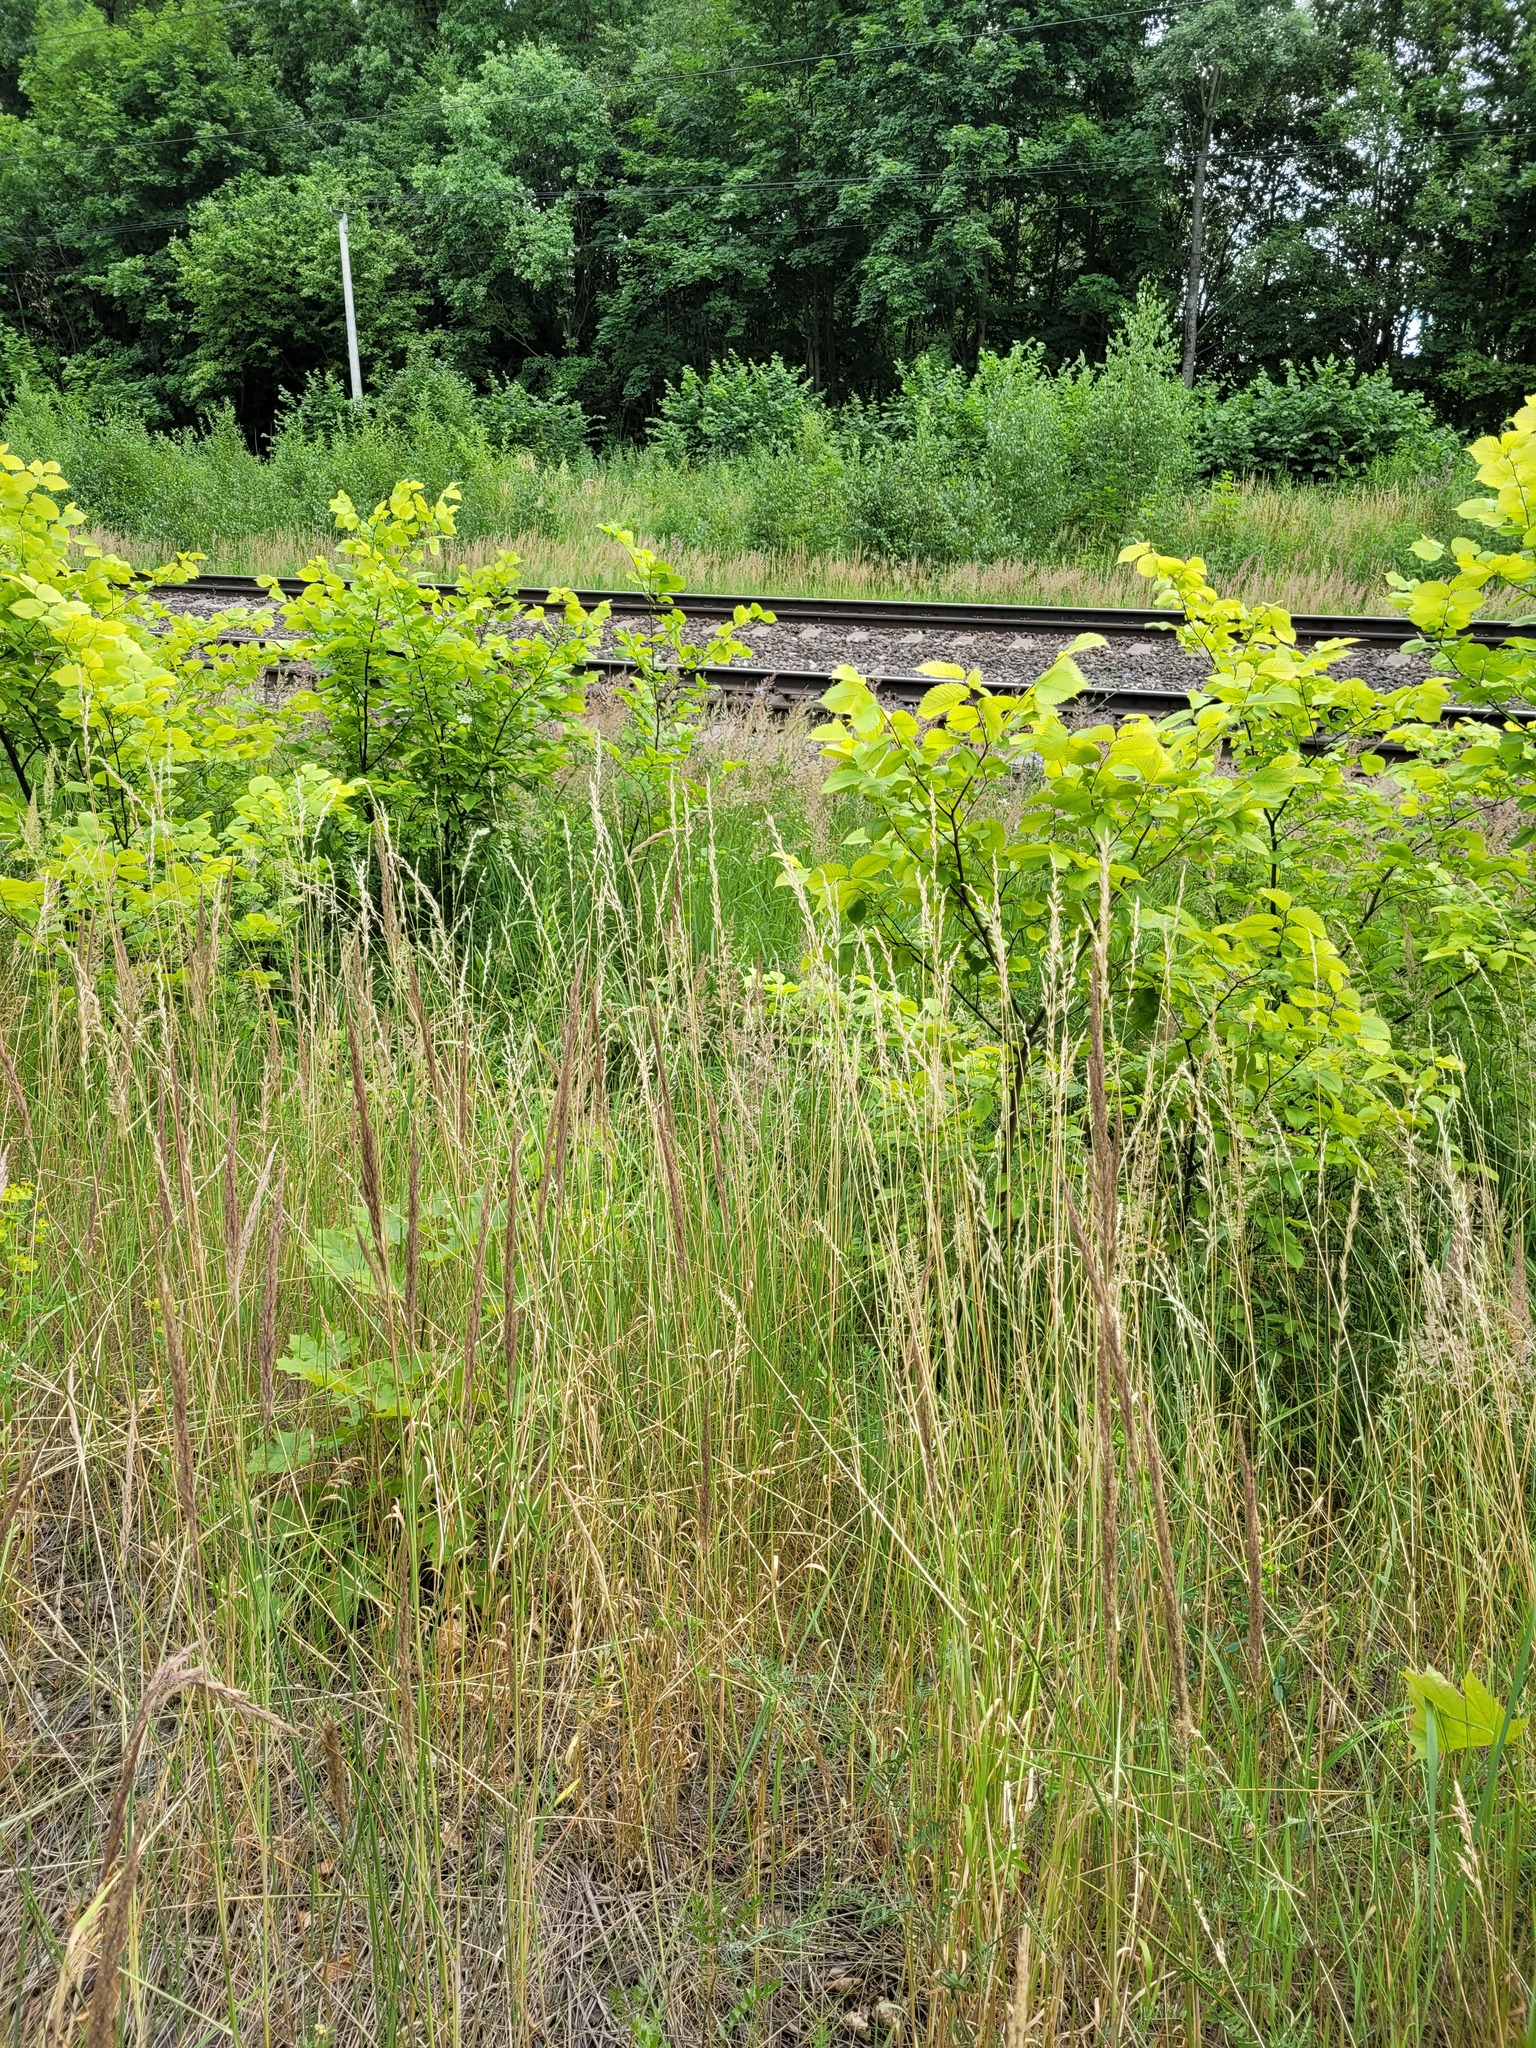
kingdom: Plantae
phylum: Tracheophyta
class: Liliopsida
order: Poales
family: Poaceae
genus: Arrhenatherum
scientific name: Arrhenatherum elatius
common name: Tall oatgrass
